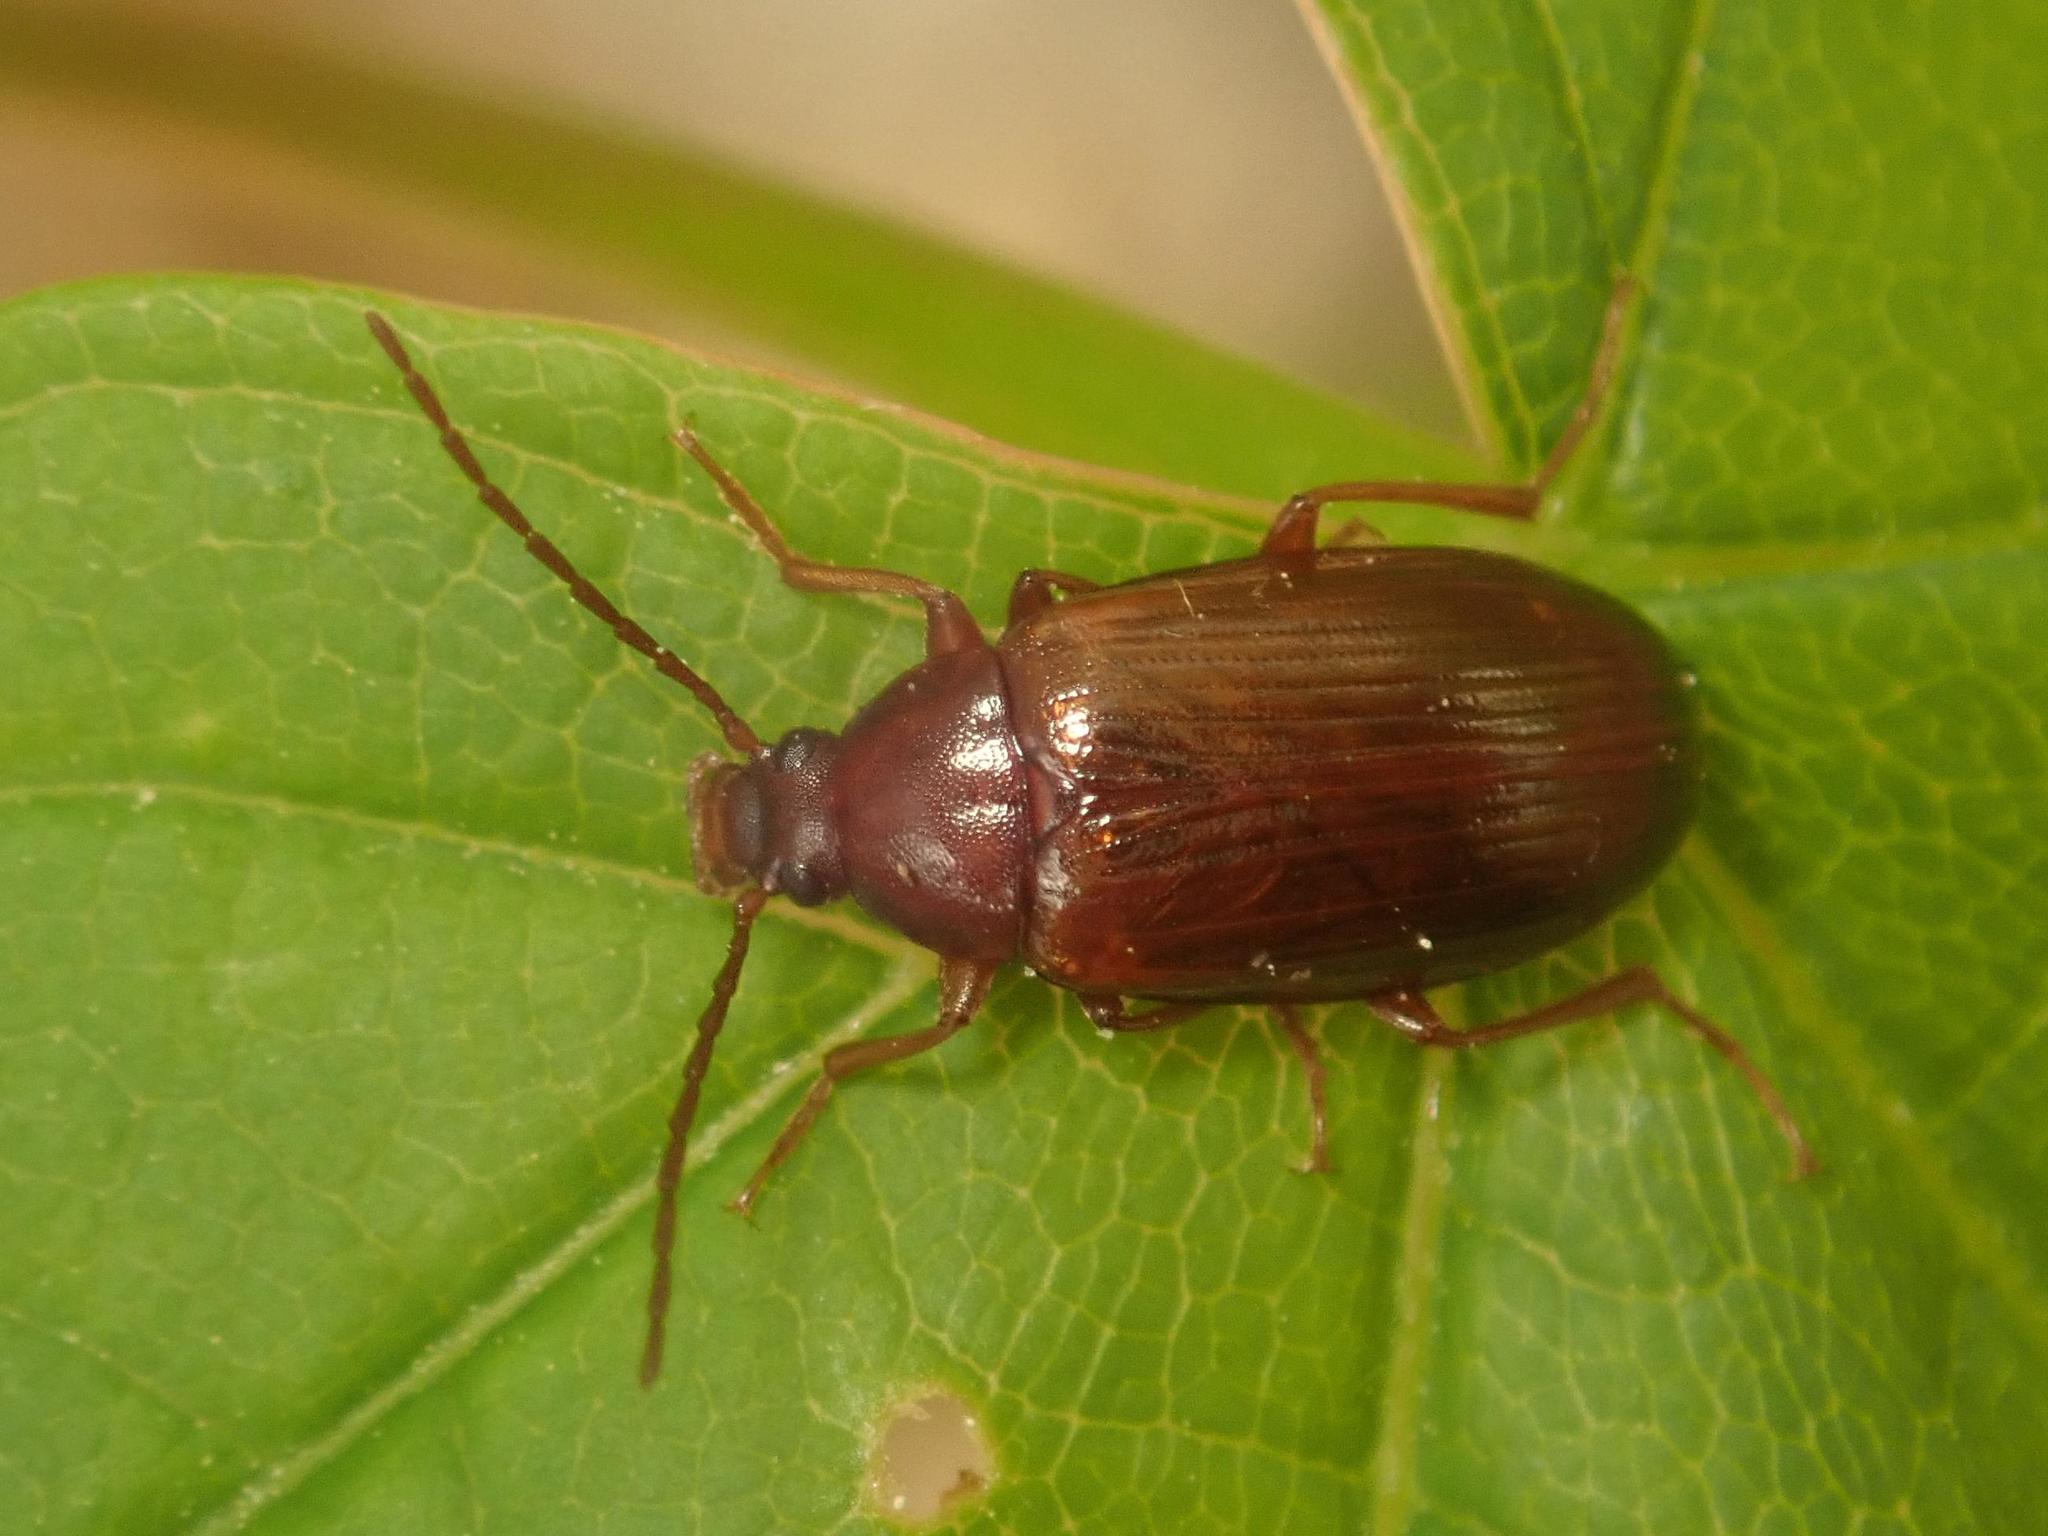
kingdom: Animalia
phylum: Arthropoda
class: Insecta
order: Coleoptera
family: Tenebrionidae
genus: Gonodera
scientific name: Gonodera luperus
